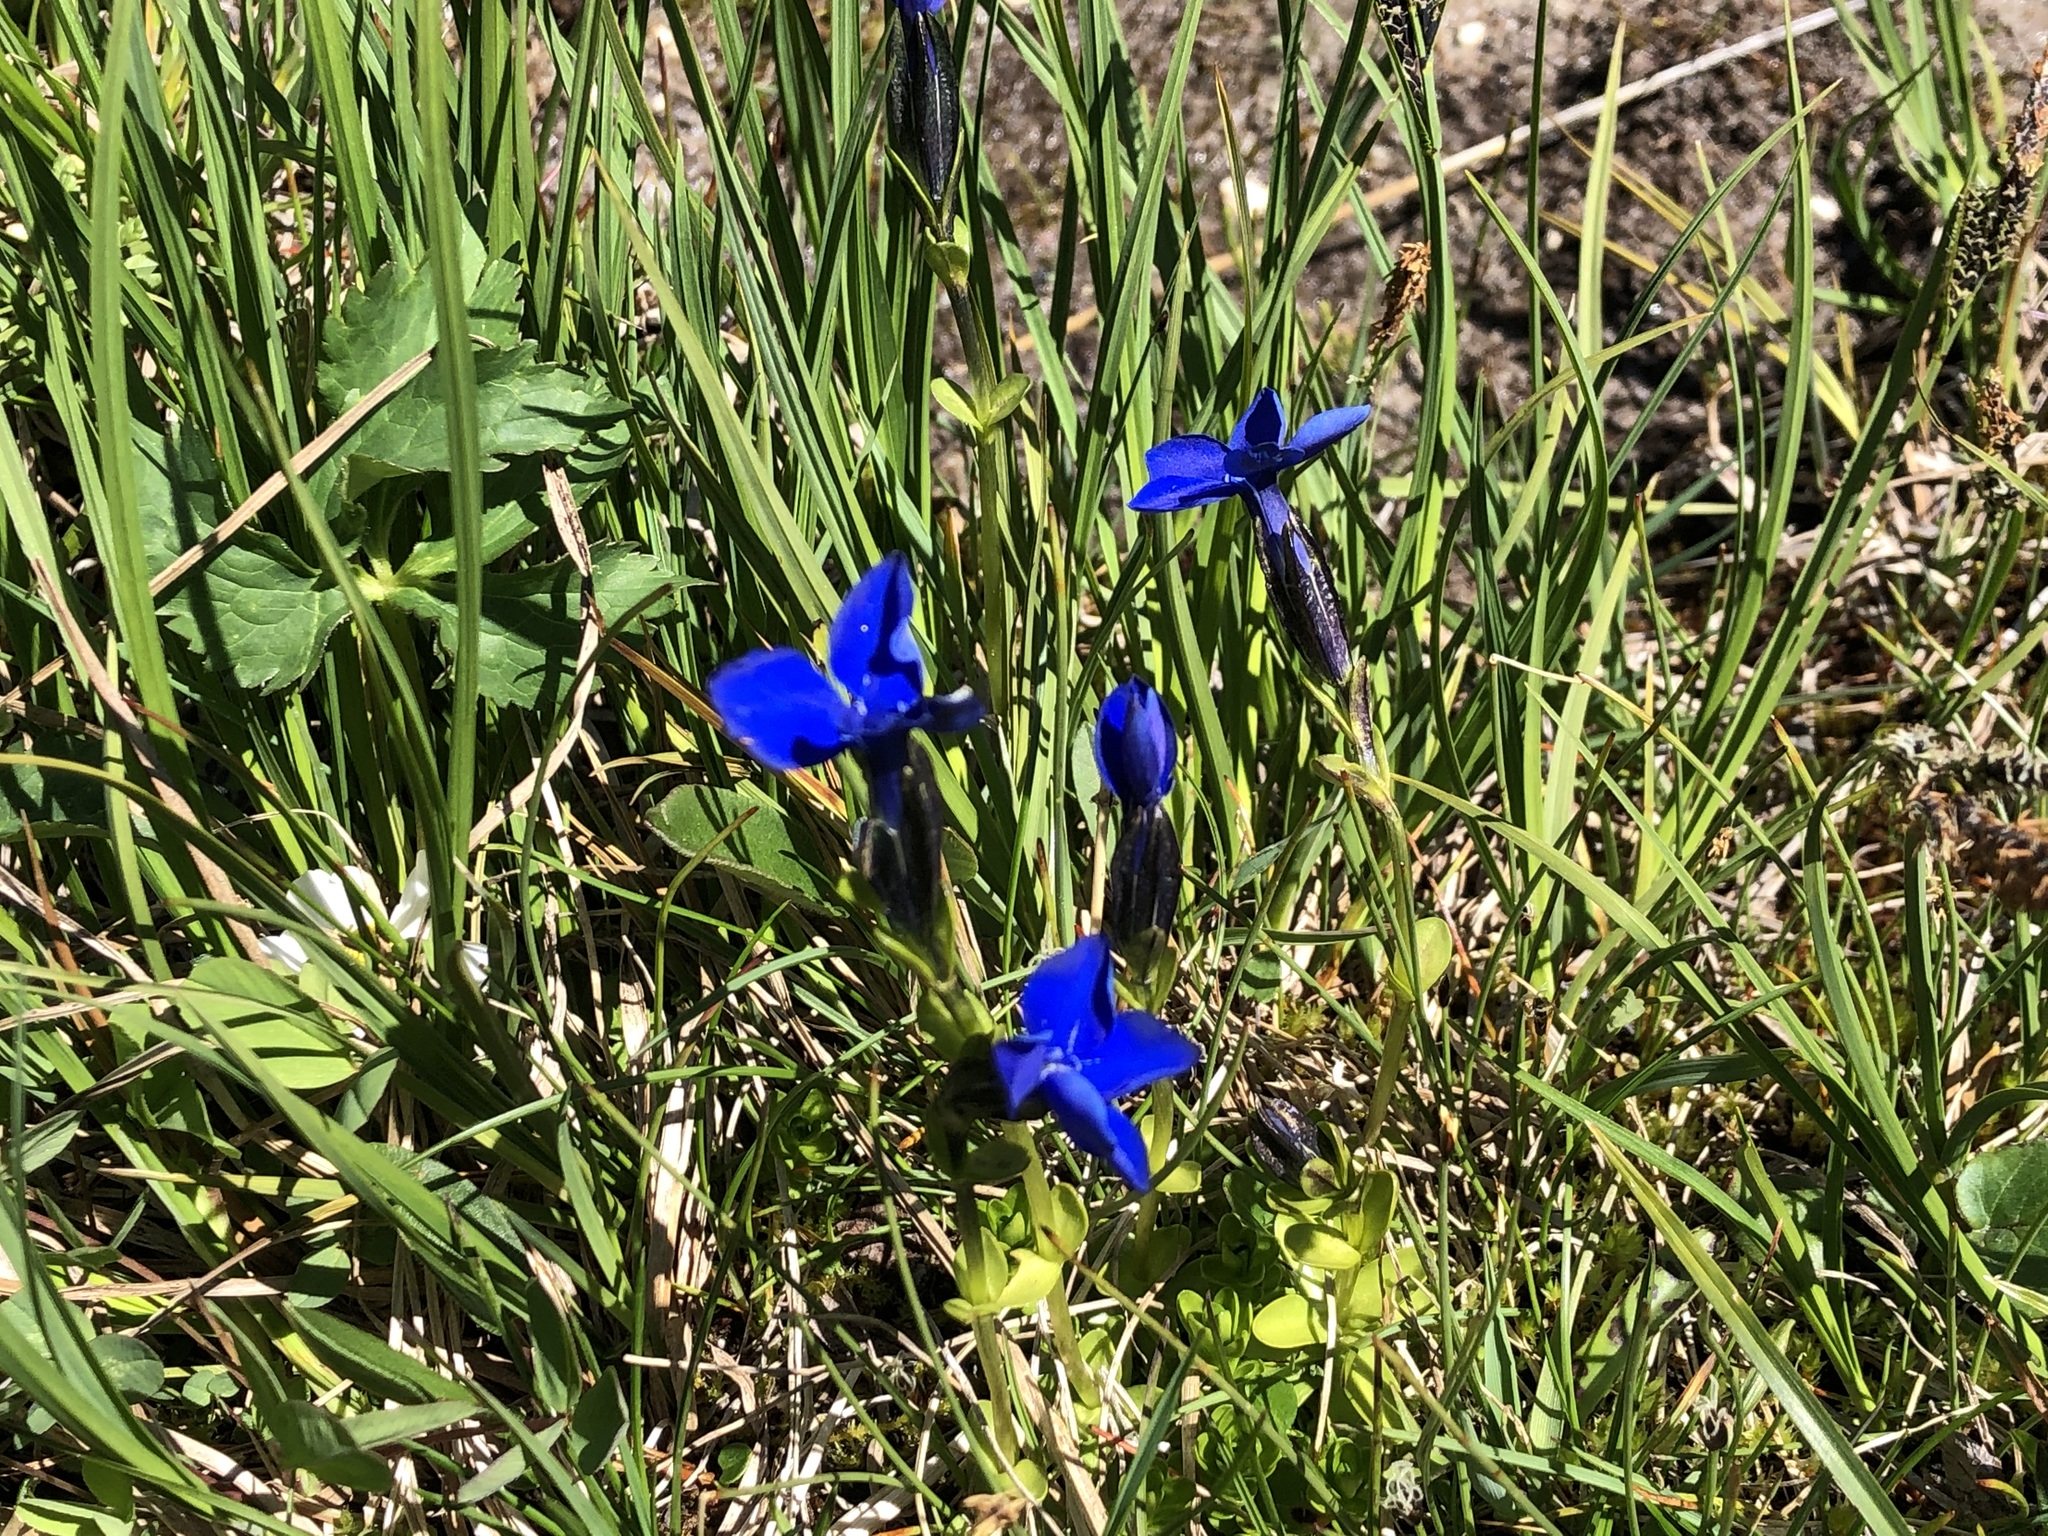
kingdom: Plantae
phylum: Tracheophyta
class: Magnoliopsida
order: Gentianales
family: Gentianaceae
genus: Gentiana
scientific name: Gentiana bavarica
